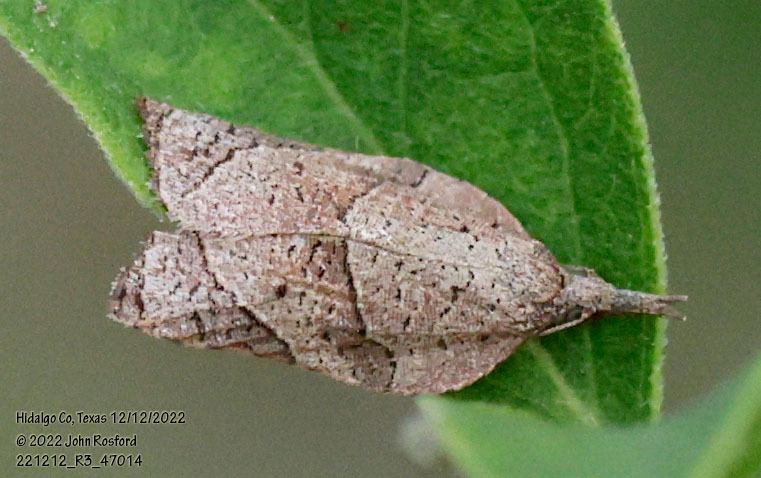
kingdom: Animalia
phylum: Arthropoda
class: Insecta
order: Lepidoptera
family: Tortricidae
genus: Platynota
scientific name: Platynota rostrana
